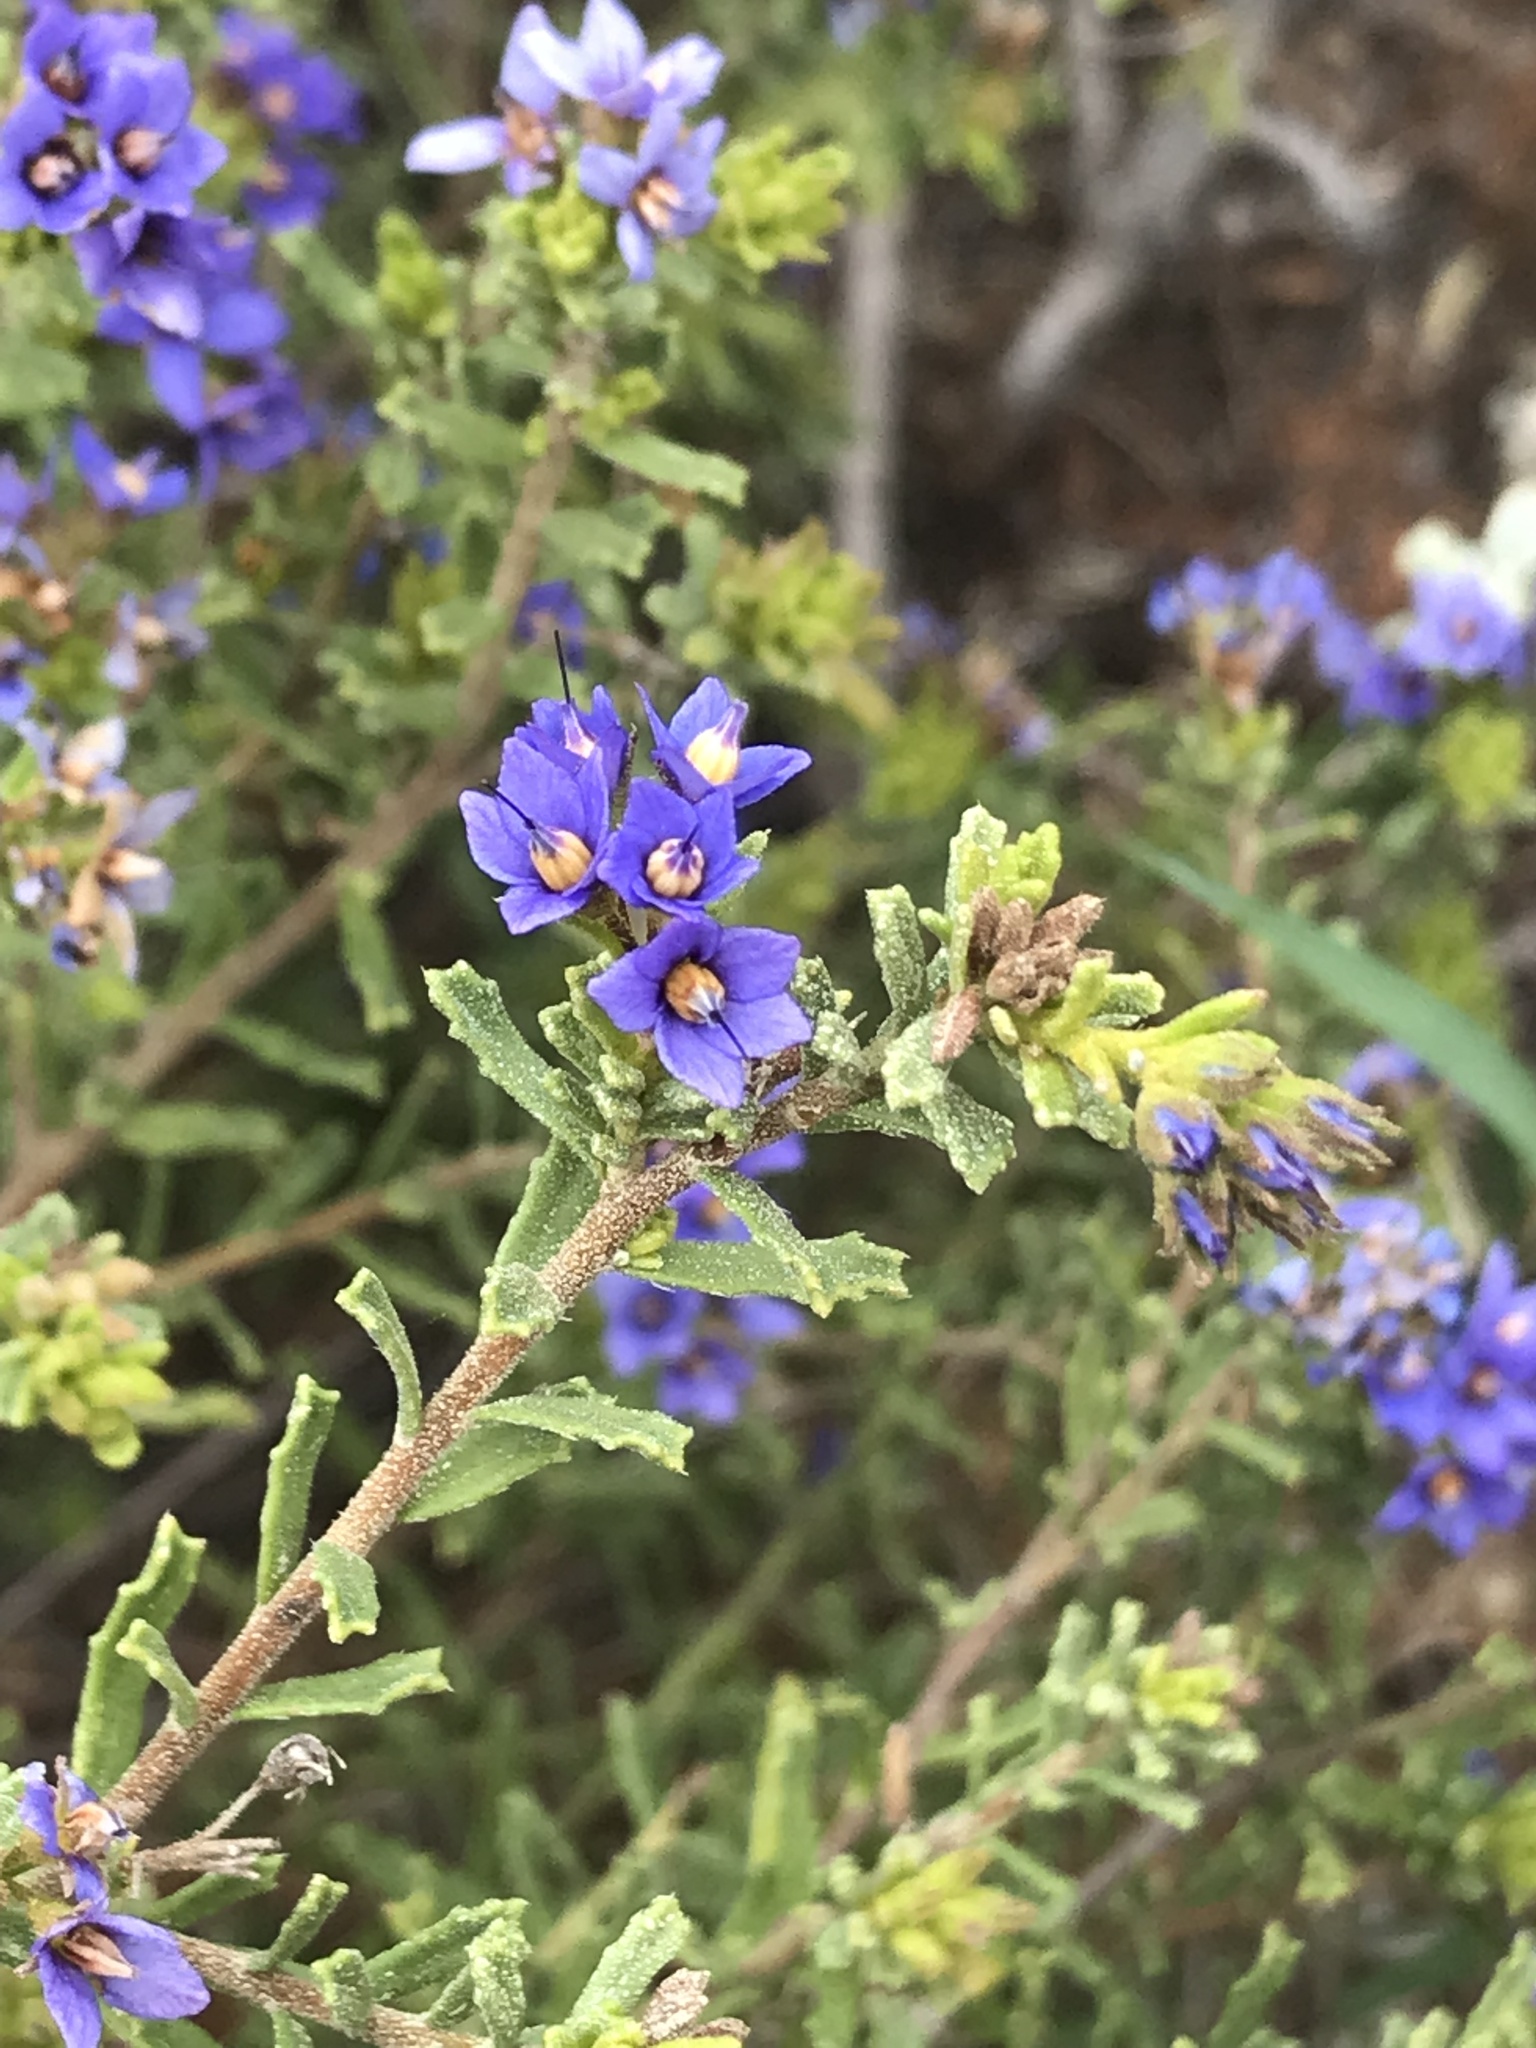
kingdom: Plantae
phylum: Tracheophyta
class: Magnoliopsida
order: Boraginales
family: Ehretiaceae
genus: Halgania
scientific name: Halgania cyanea
